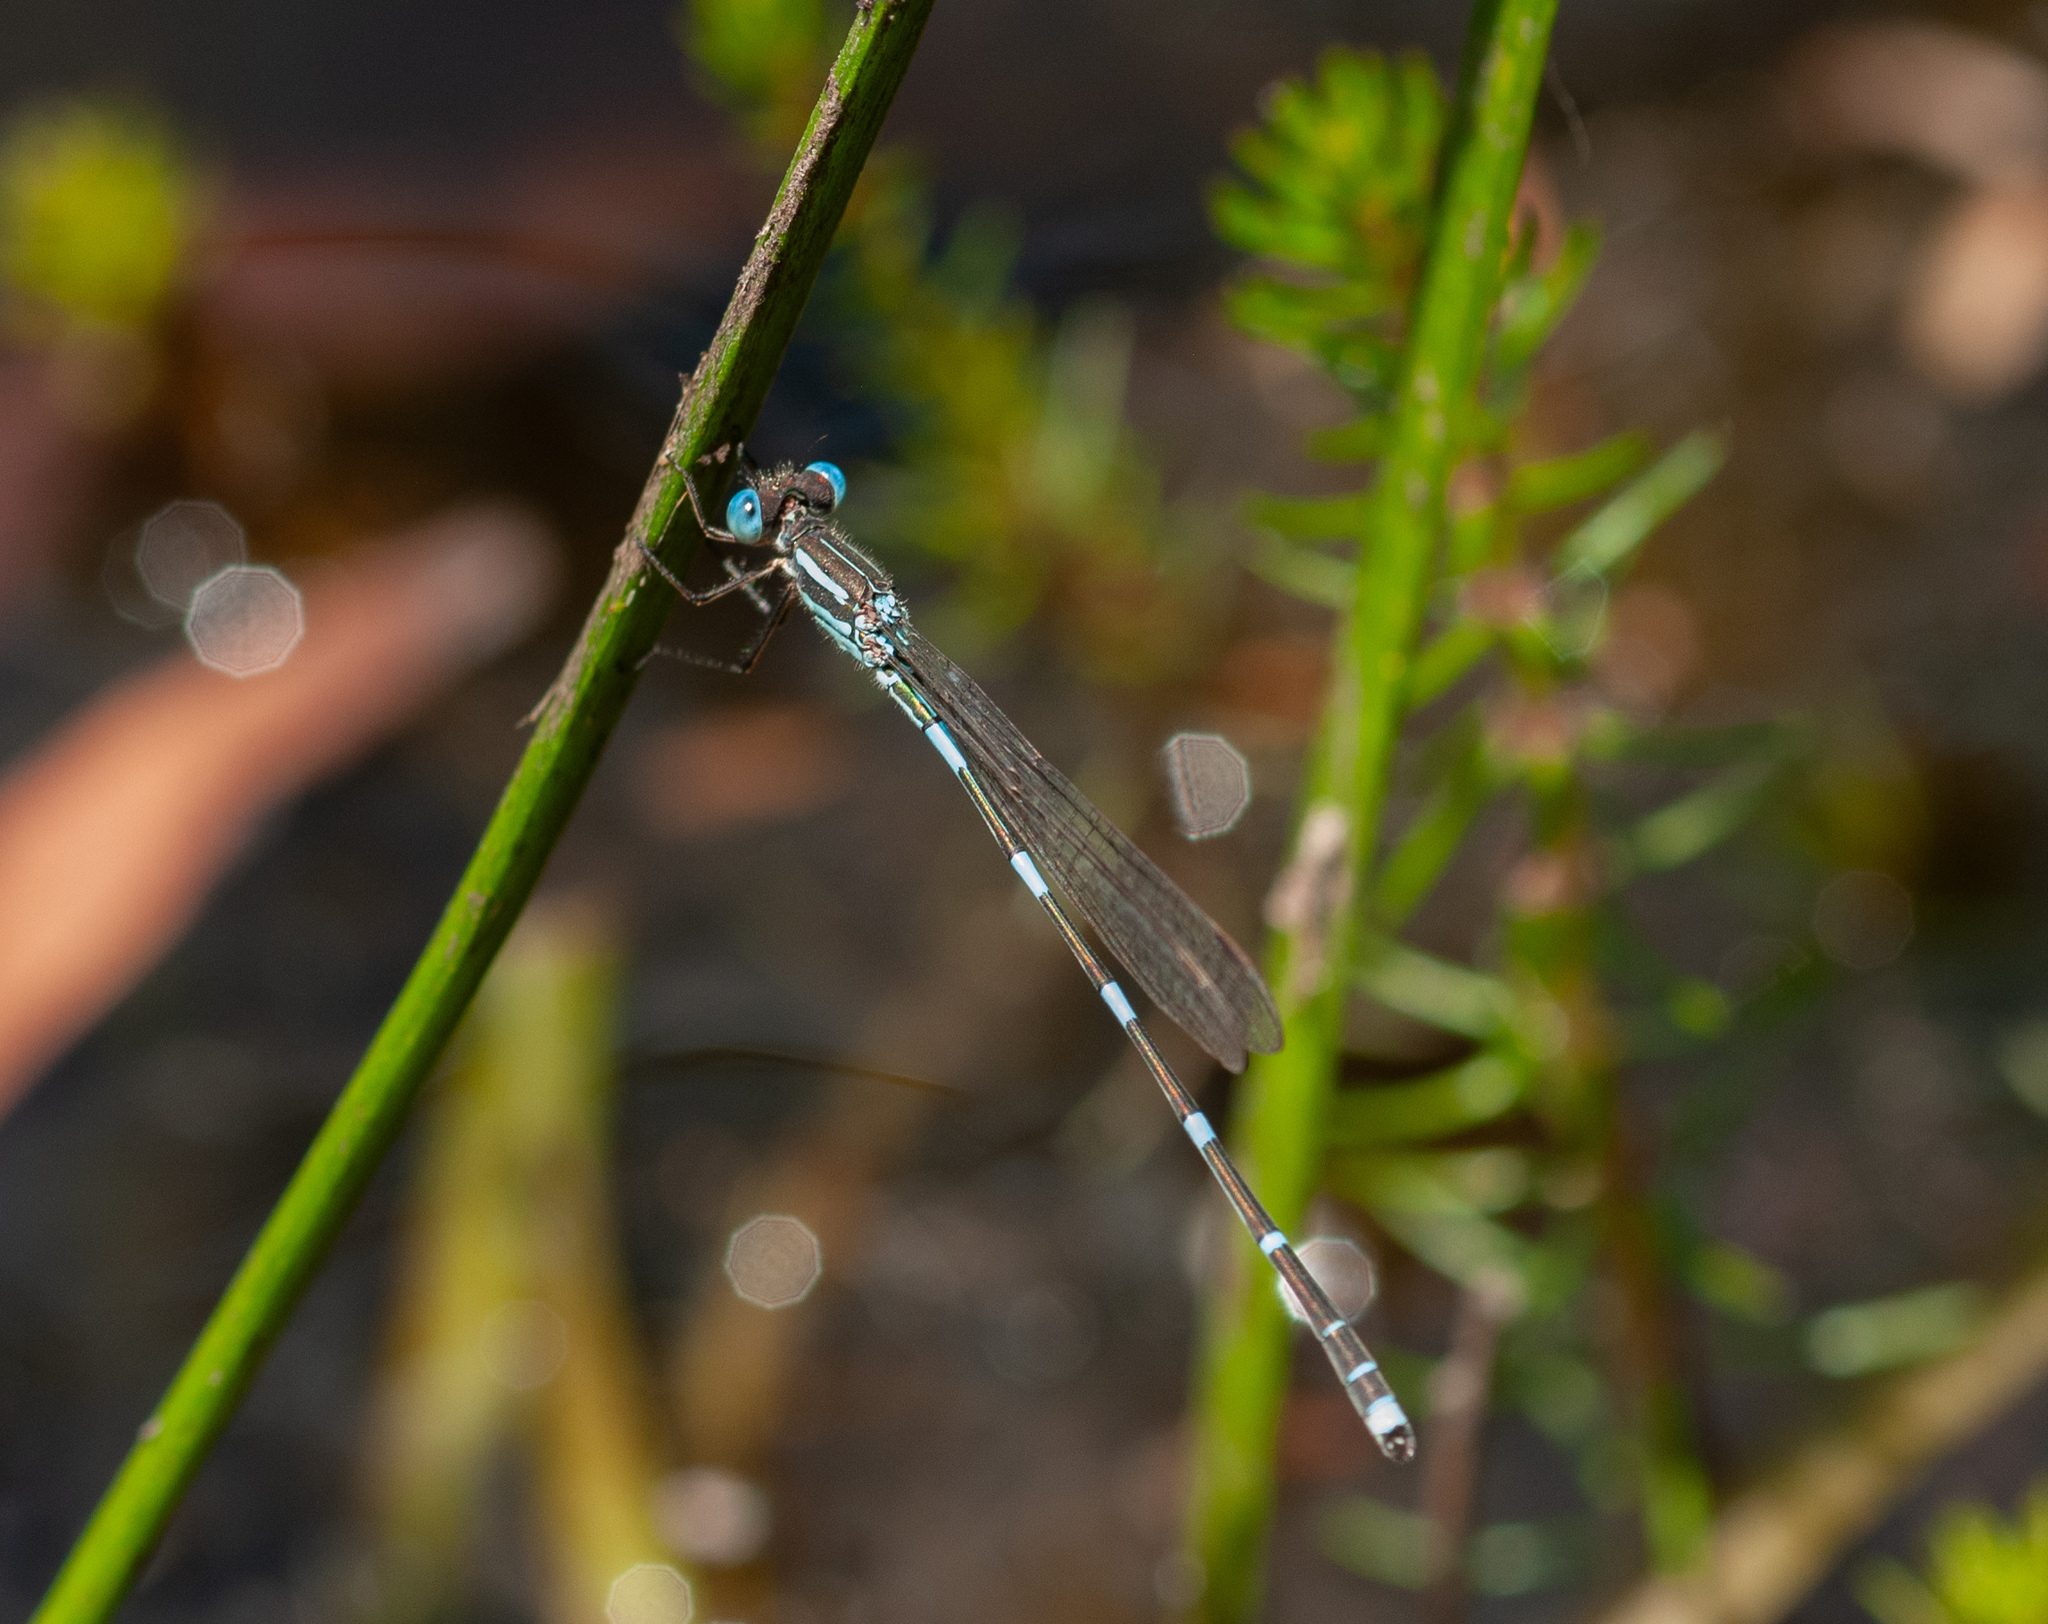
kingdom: Animalia
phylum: Arthropoda
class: Insecta
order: Odonata
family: Lestidae
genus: Austrolestes
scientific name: Austrolestes leda
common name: Wandering ringtail
